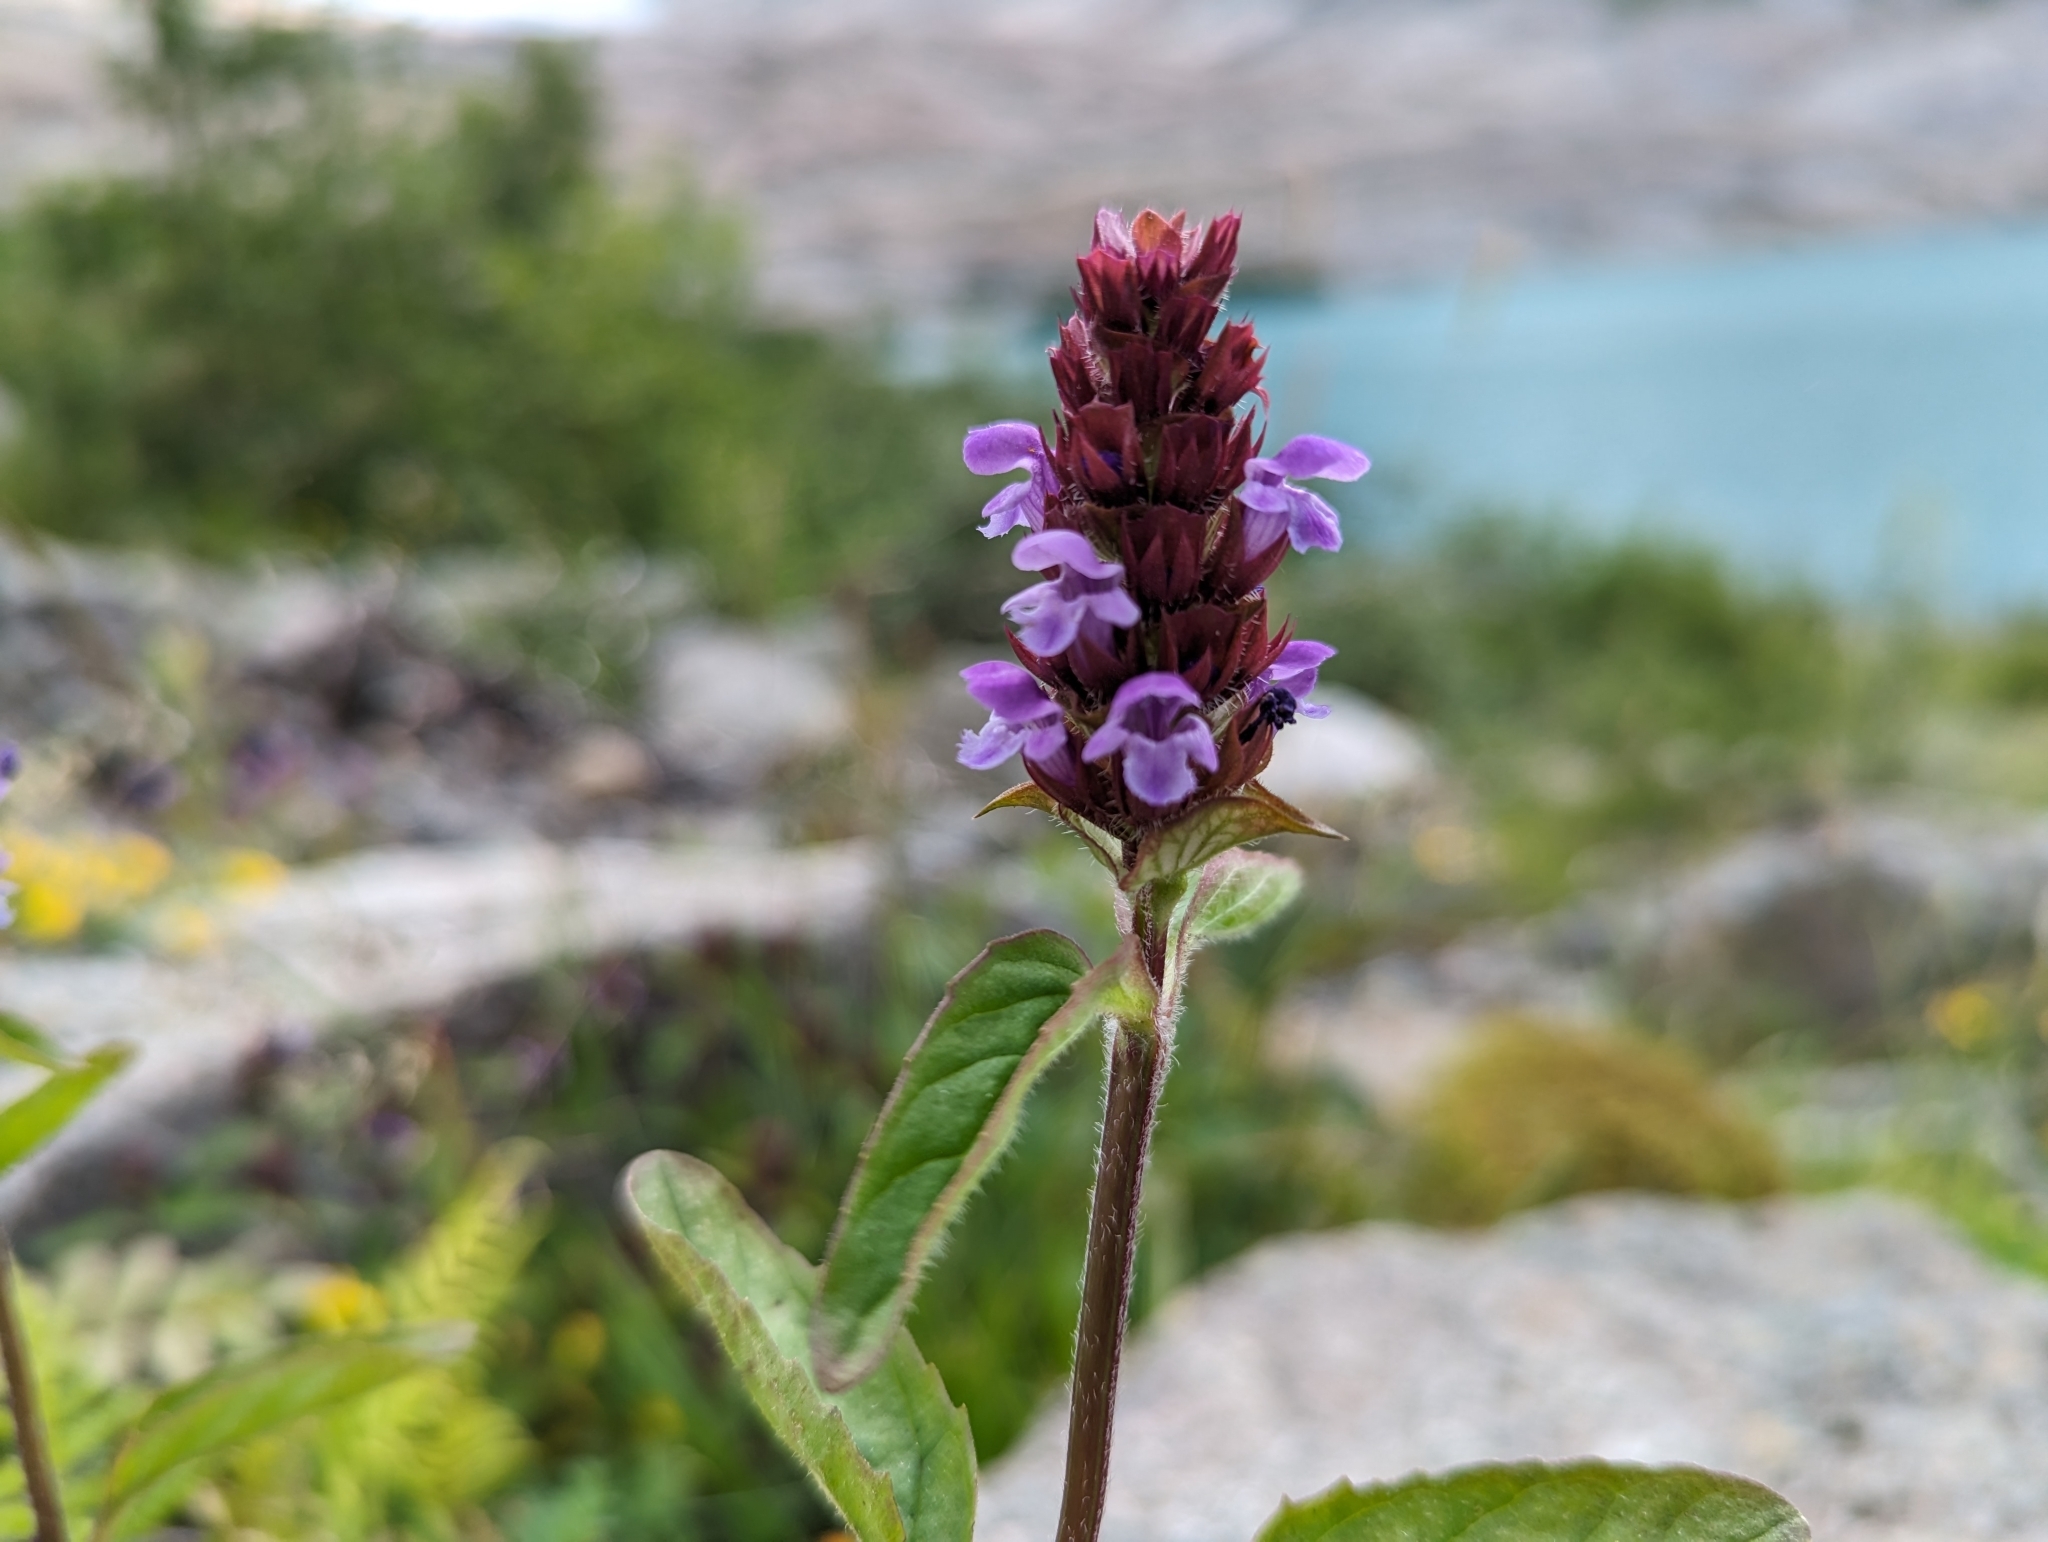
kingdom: Plantae
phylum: Tracheophyta
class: Magnoliopsida
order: Lamiales
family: Lamiaceae
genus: Prunella
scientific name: Prunella vulgaris
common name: Heal-all
